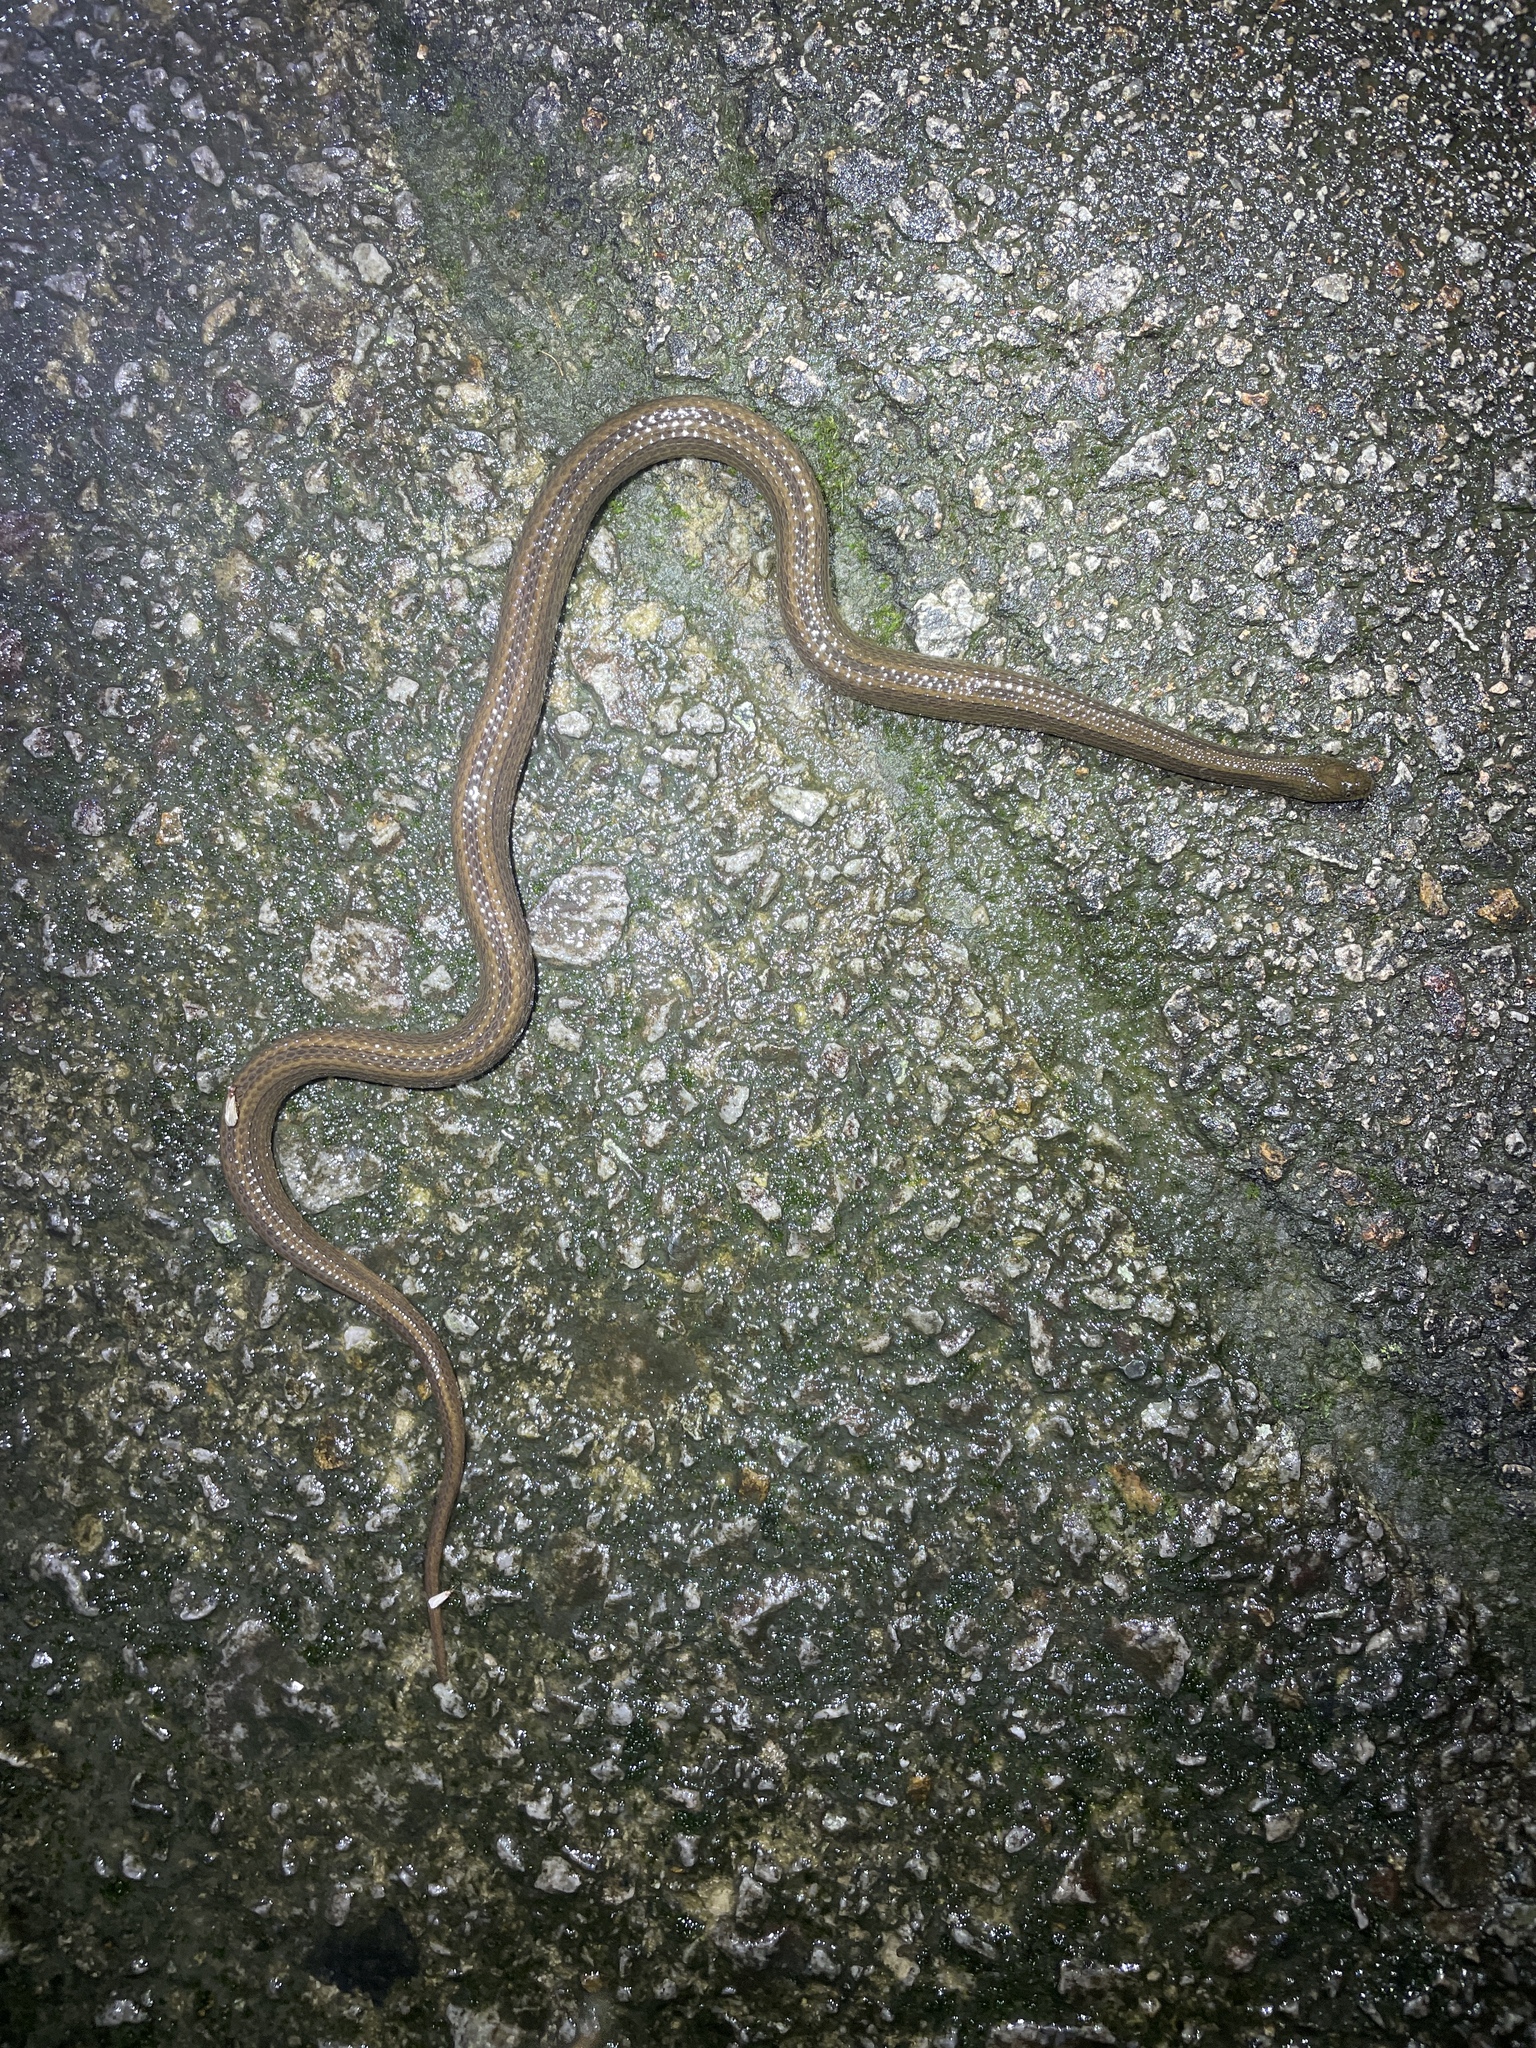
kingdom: Animalia
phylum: Chordata
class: Squamata
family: Colubridae
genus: Opisthotropis
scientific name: Opisthotropis kuatunensis
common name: Chinese mountain keelback
